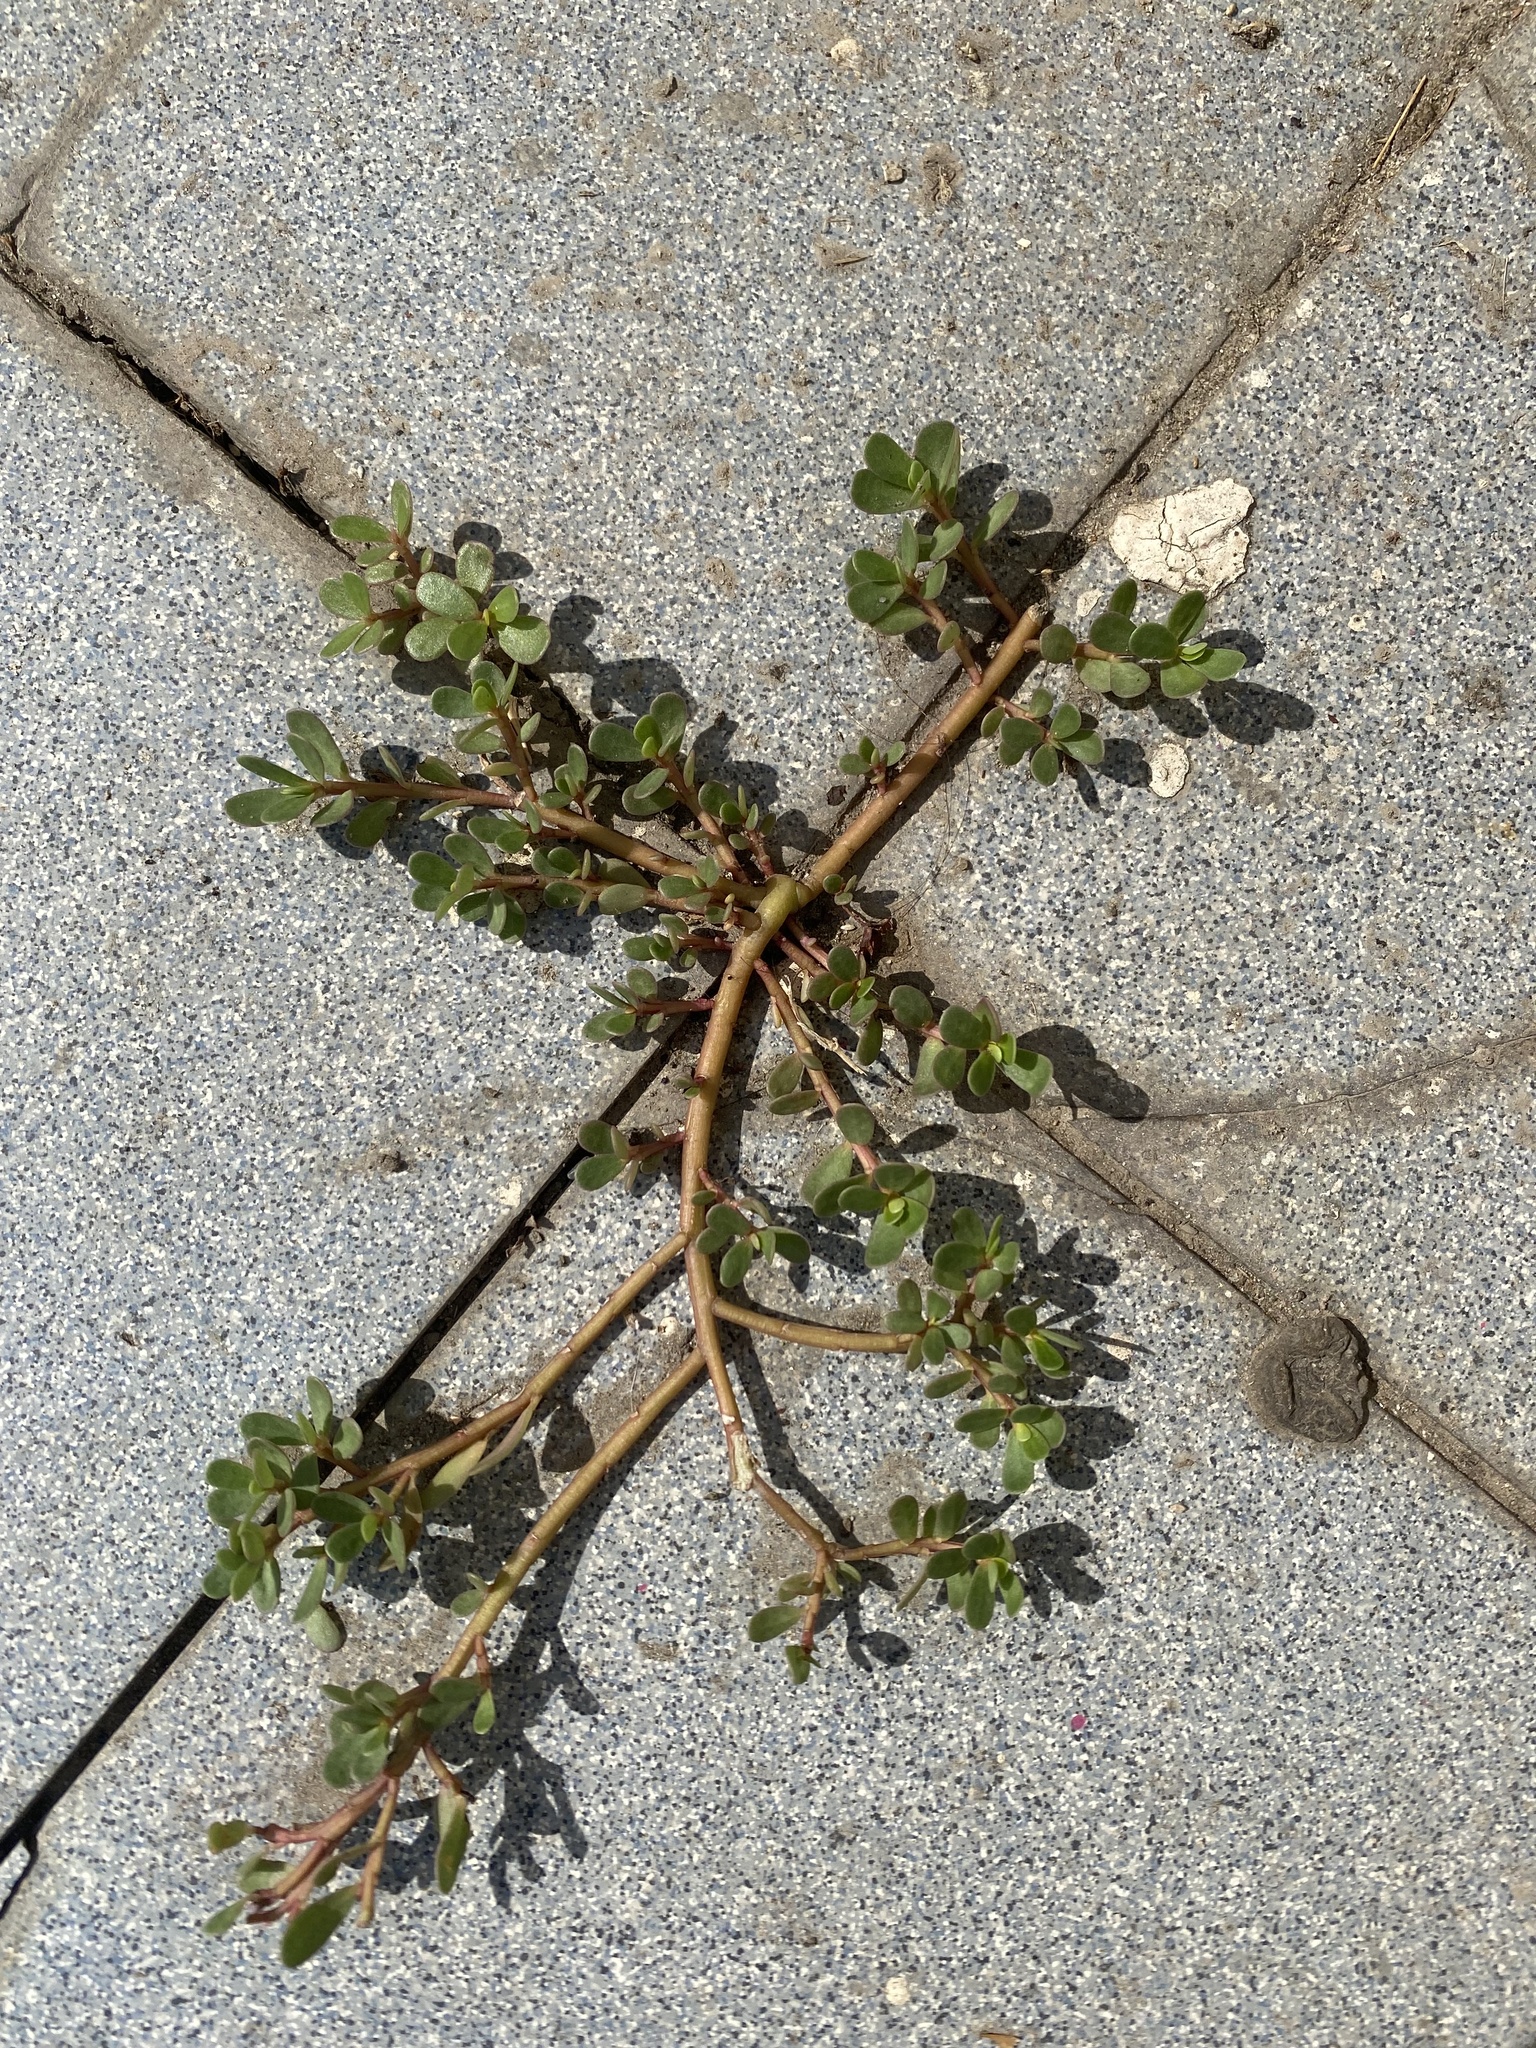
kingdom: Plantae
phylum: Tracheophyta
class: Magnoliopsida
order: Caryophyllales
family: Portulacaceae
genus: Portulaca
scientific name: Portulaca oleracea
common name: Common purslane
